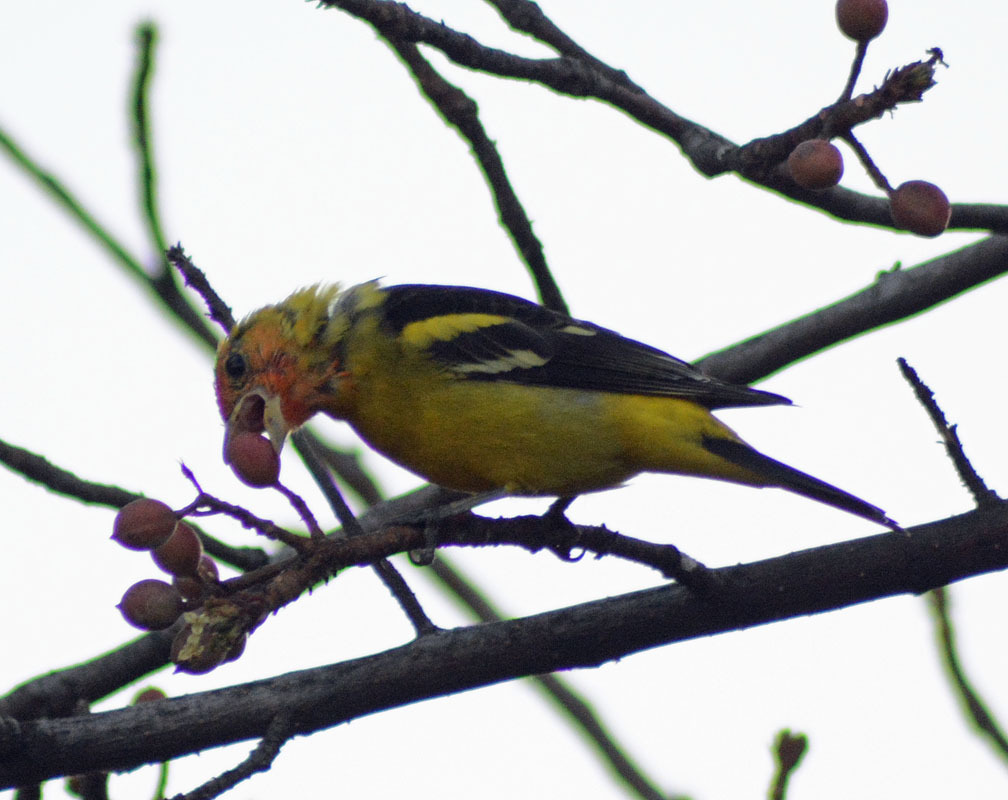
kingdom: Animalia
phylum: Chordata
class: Aves
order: Passeriformes
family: Cardinalidae
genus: Piranga
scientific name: Piranga ludoviciana
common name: Western tanager
